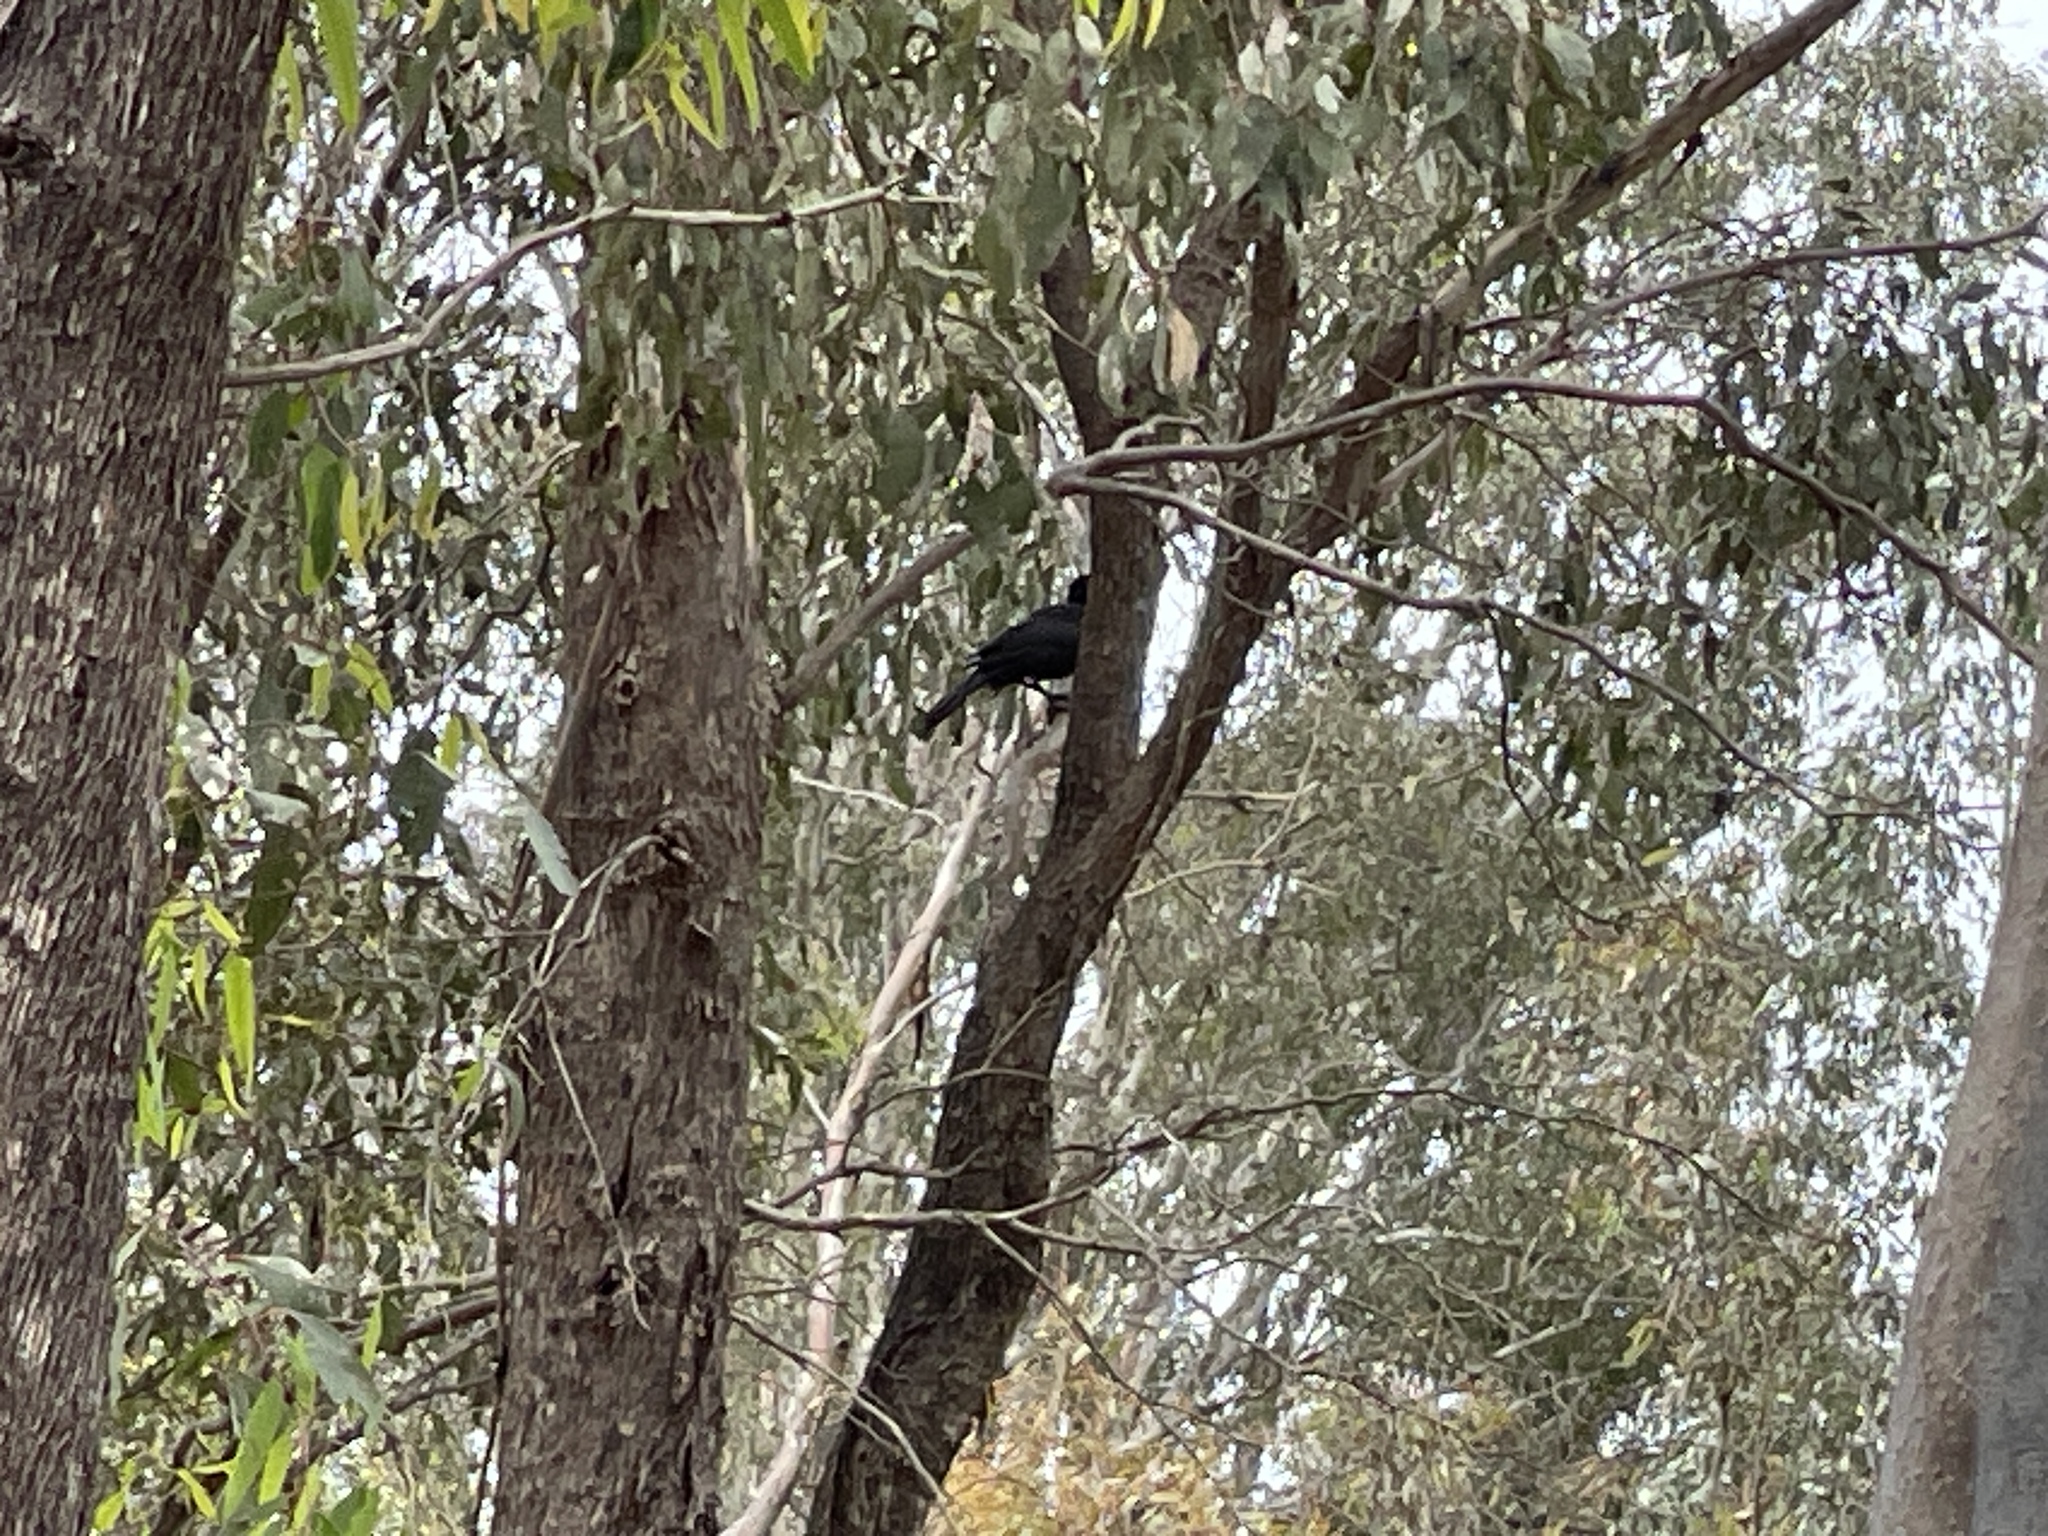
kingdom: Animalia
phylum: Chordata
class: Aves
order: Passeriformes
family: Corcoracidae
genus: Corcorax
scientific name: Corcorax melanoramphos
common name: White-winged chough
